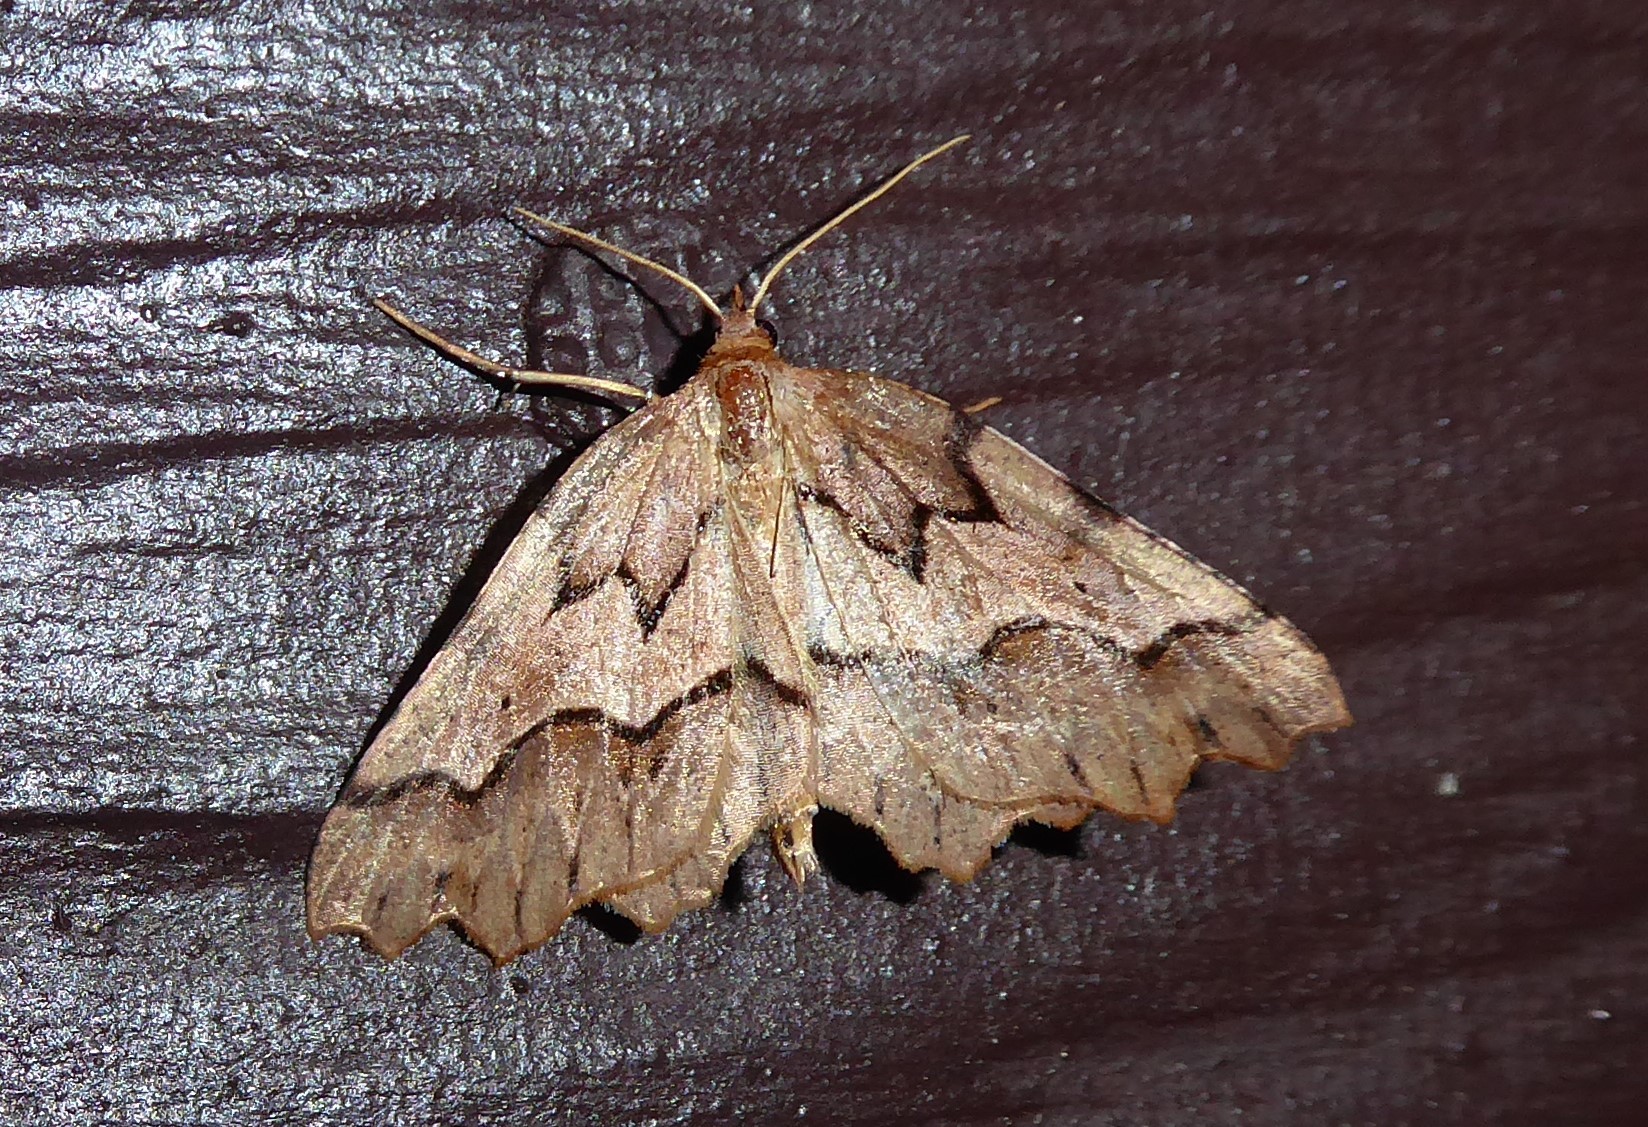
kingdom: Animalia
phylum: Arthropoda
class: Insecta
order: Lepidoptera
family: Geometridae
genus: Ischalis
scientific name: Ischalis fortinata
